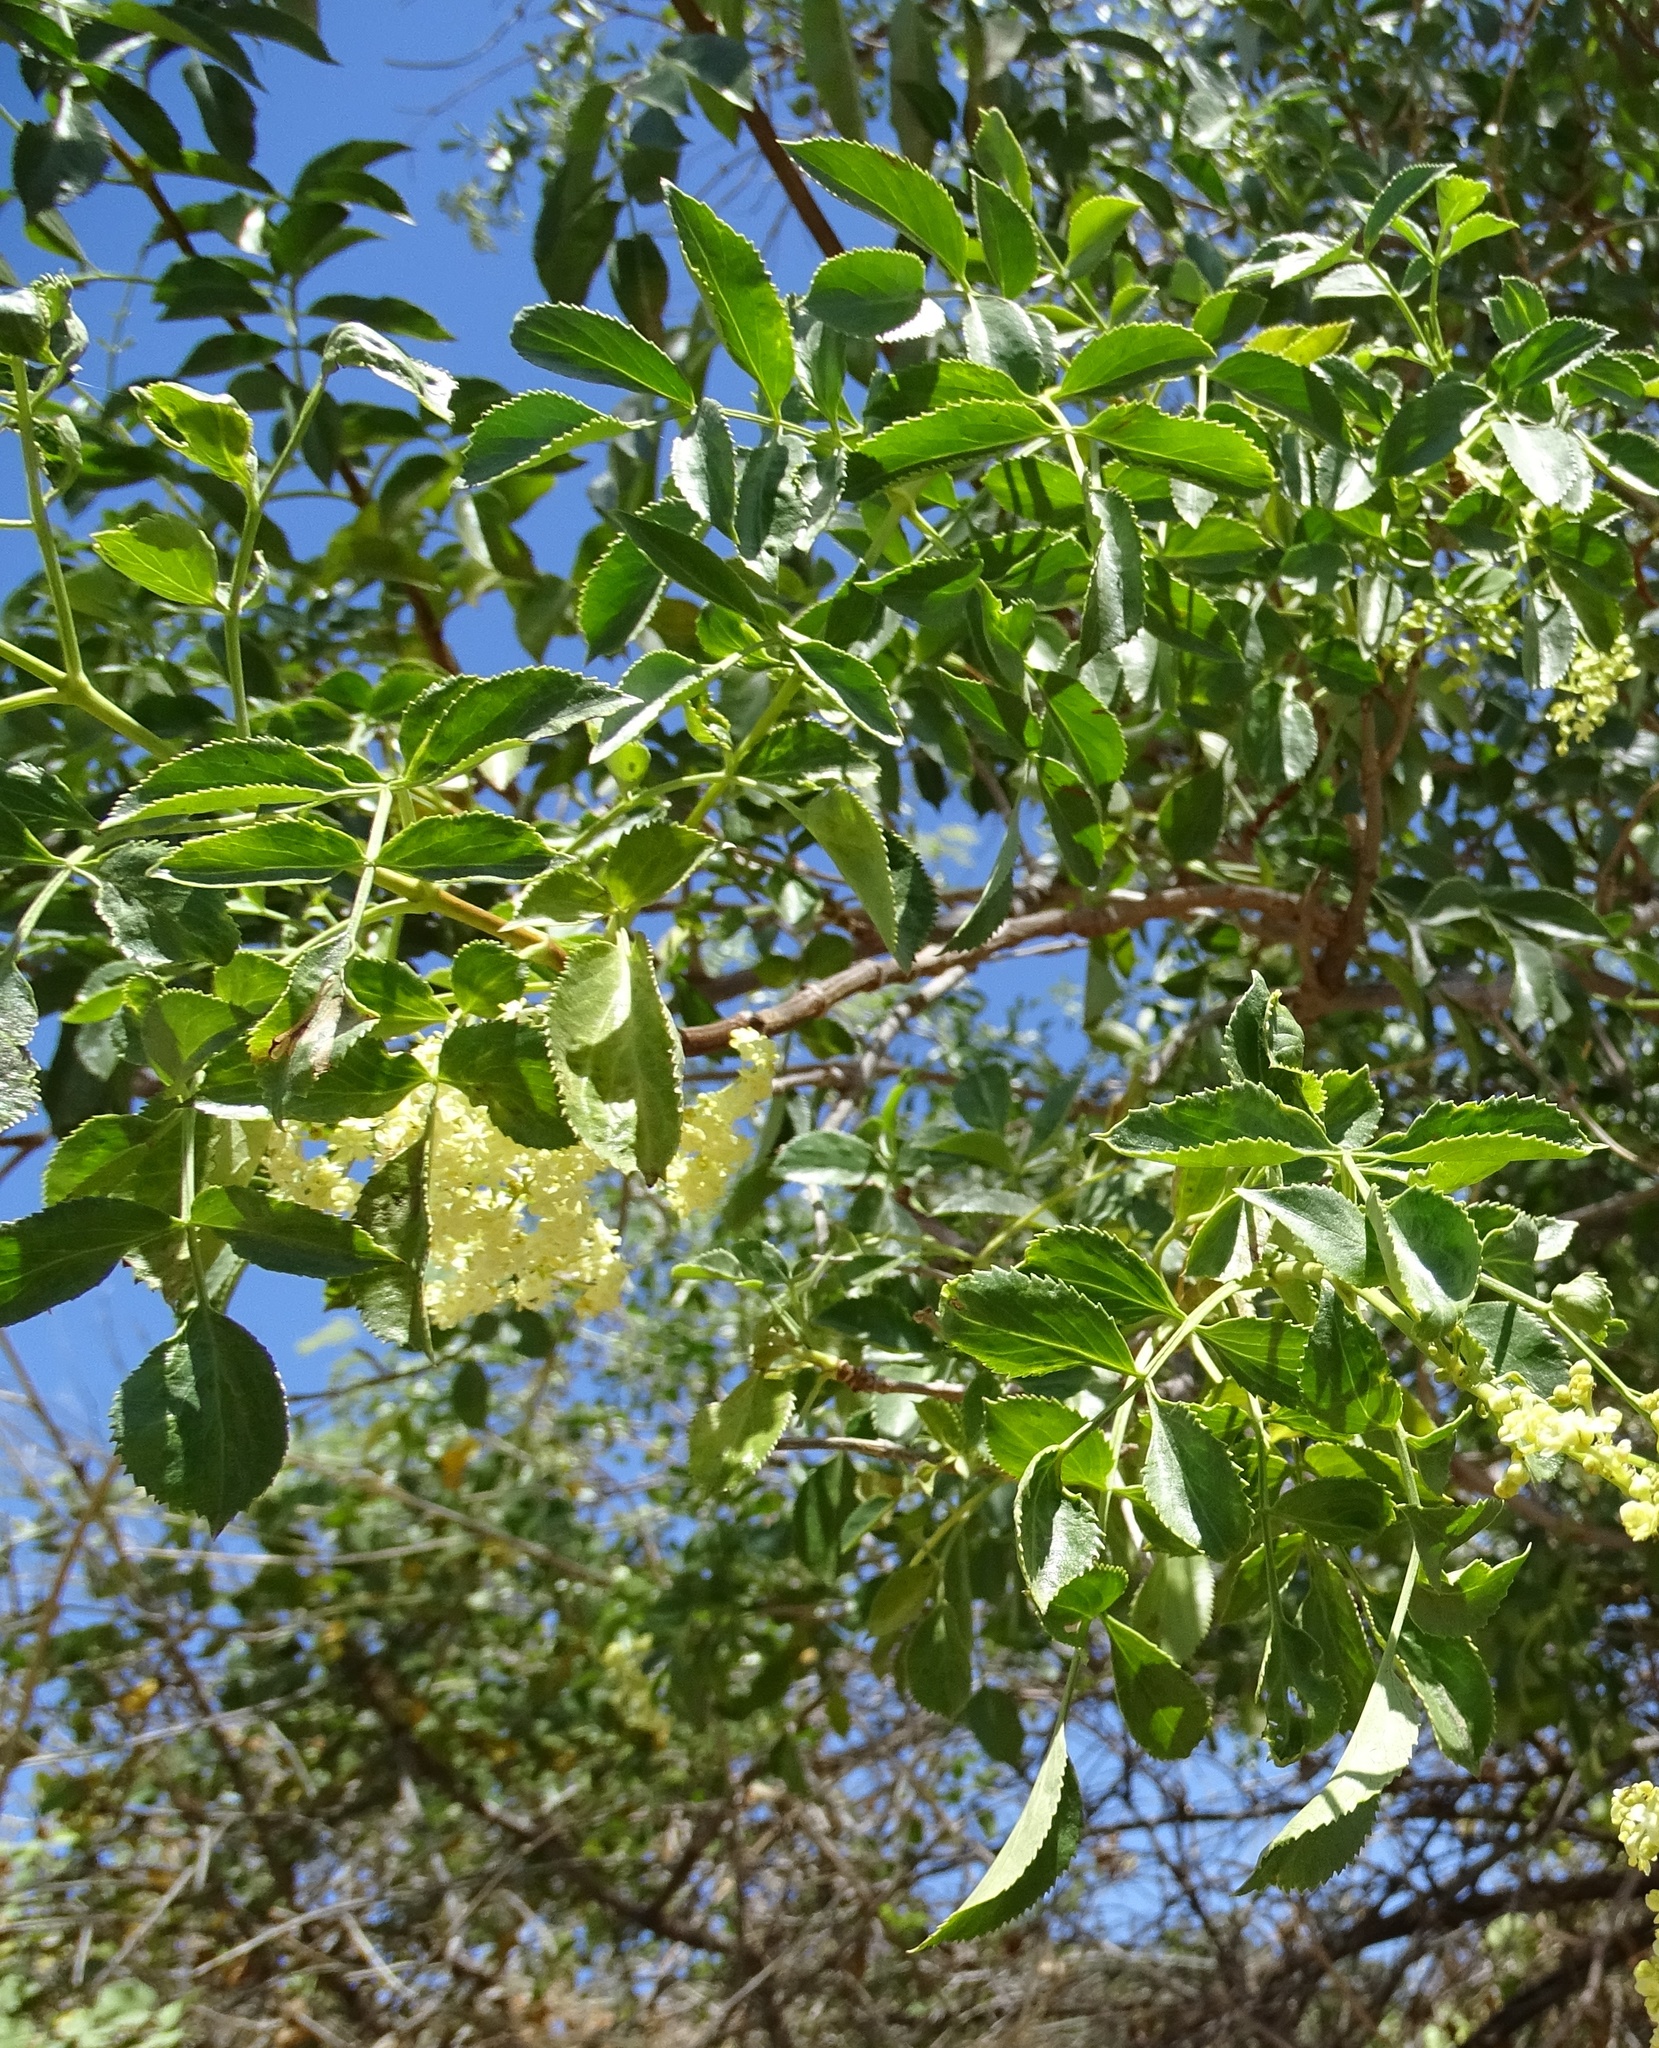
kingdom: Plantae
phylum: Tracheophyta
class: Magnoliopsida
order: Dipsacales
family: Viburnaceae
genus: Sambucus
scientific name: Sambucus cerulea
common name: Blue elder
